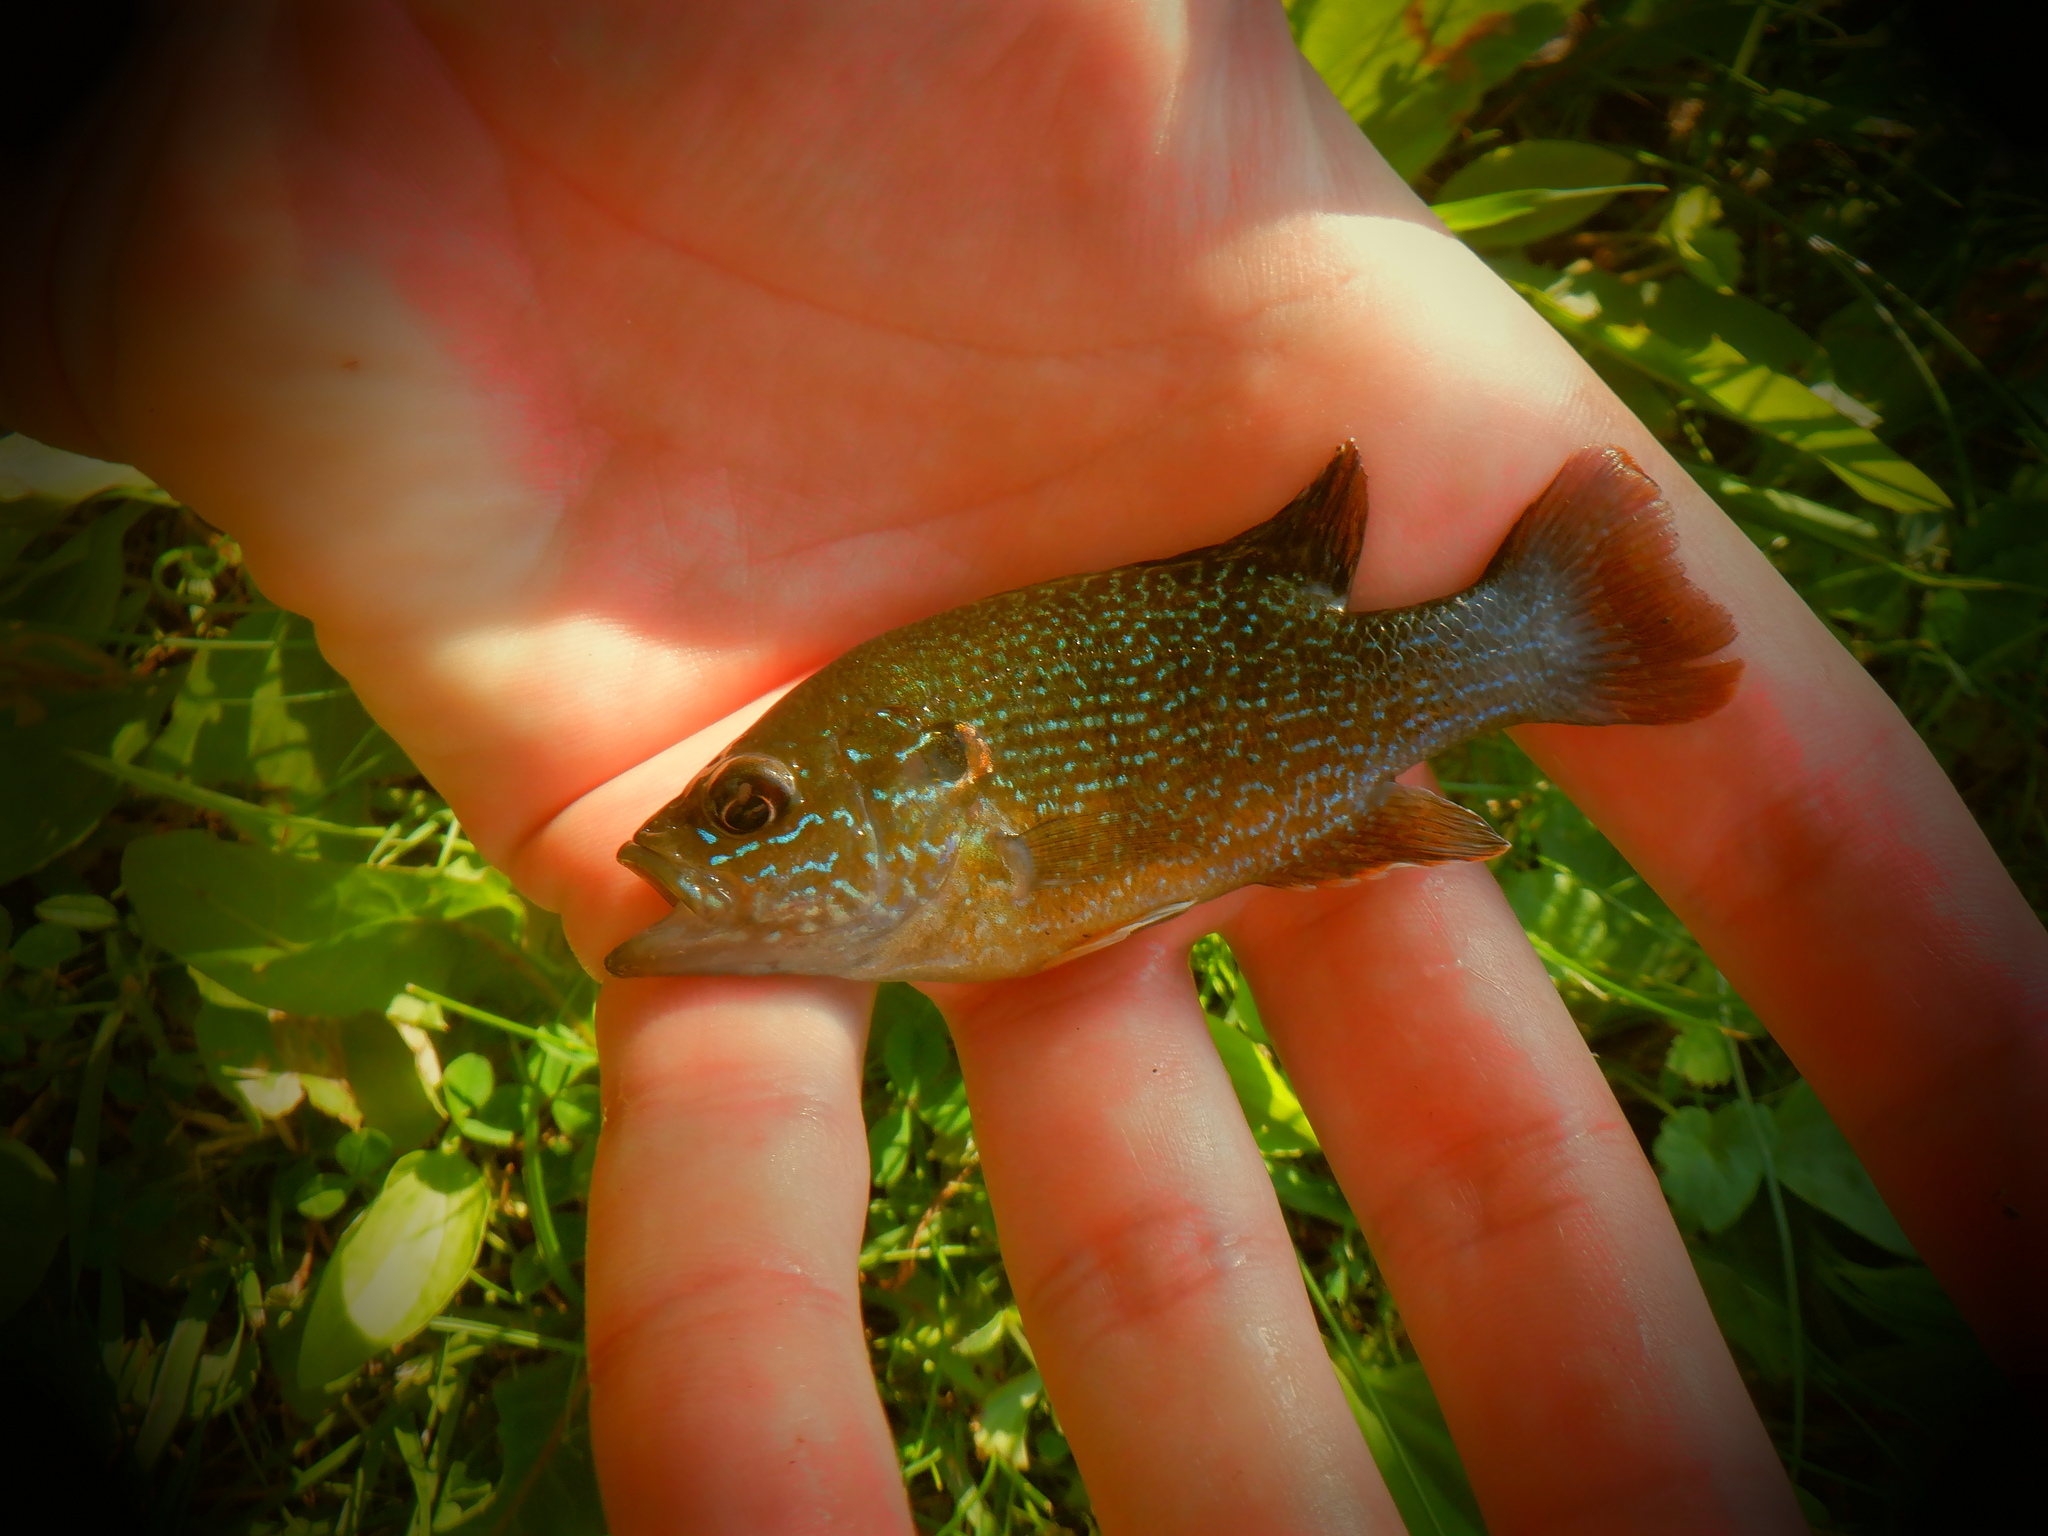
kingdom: Animalia
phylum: Chordata
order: Perciformes
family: Centrarchidae
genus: Lepomis
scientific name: Lepomis cyanellus
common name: Green sunfish
